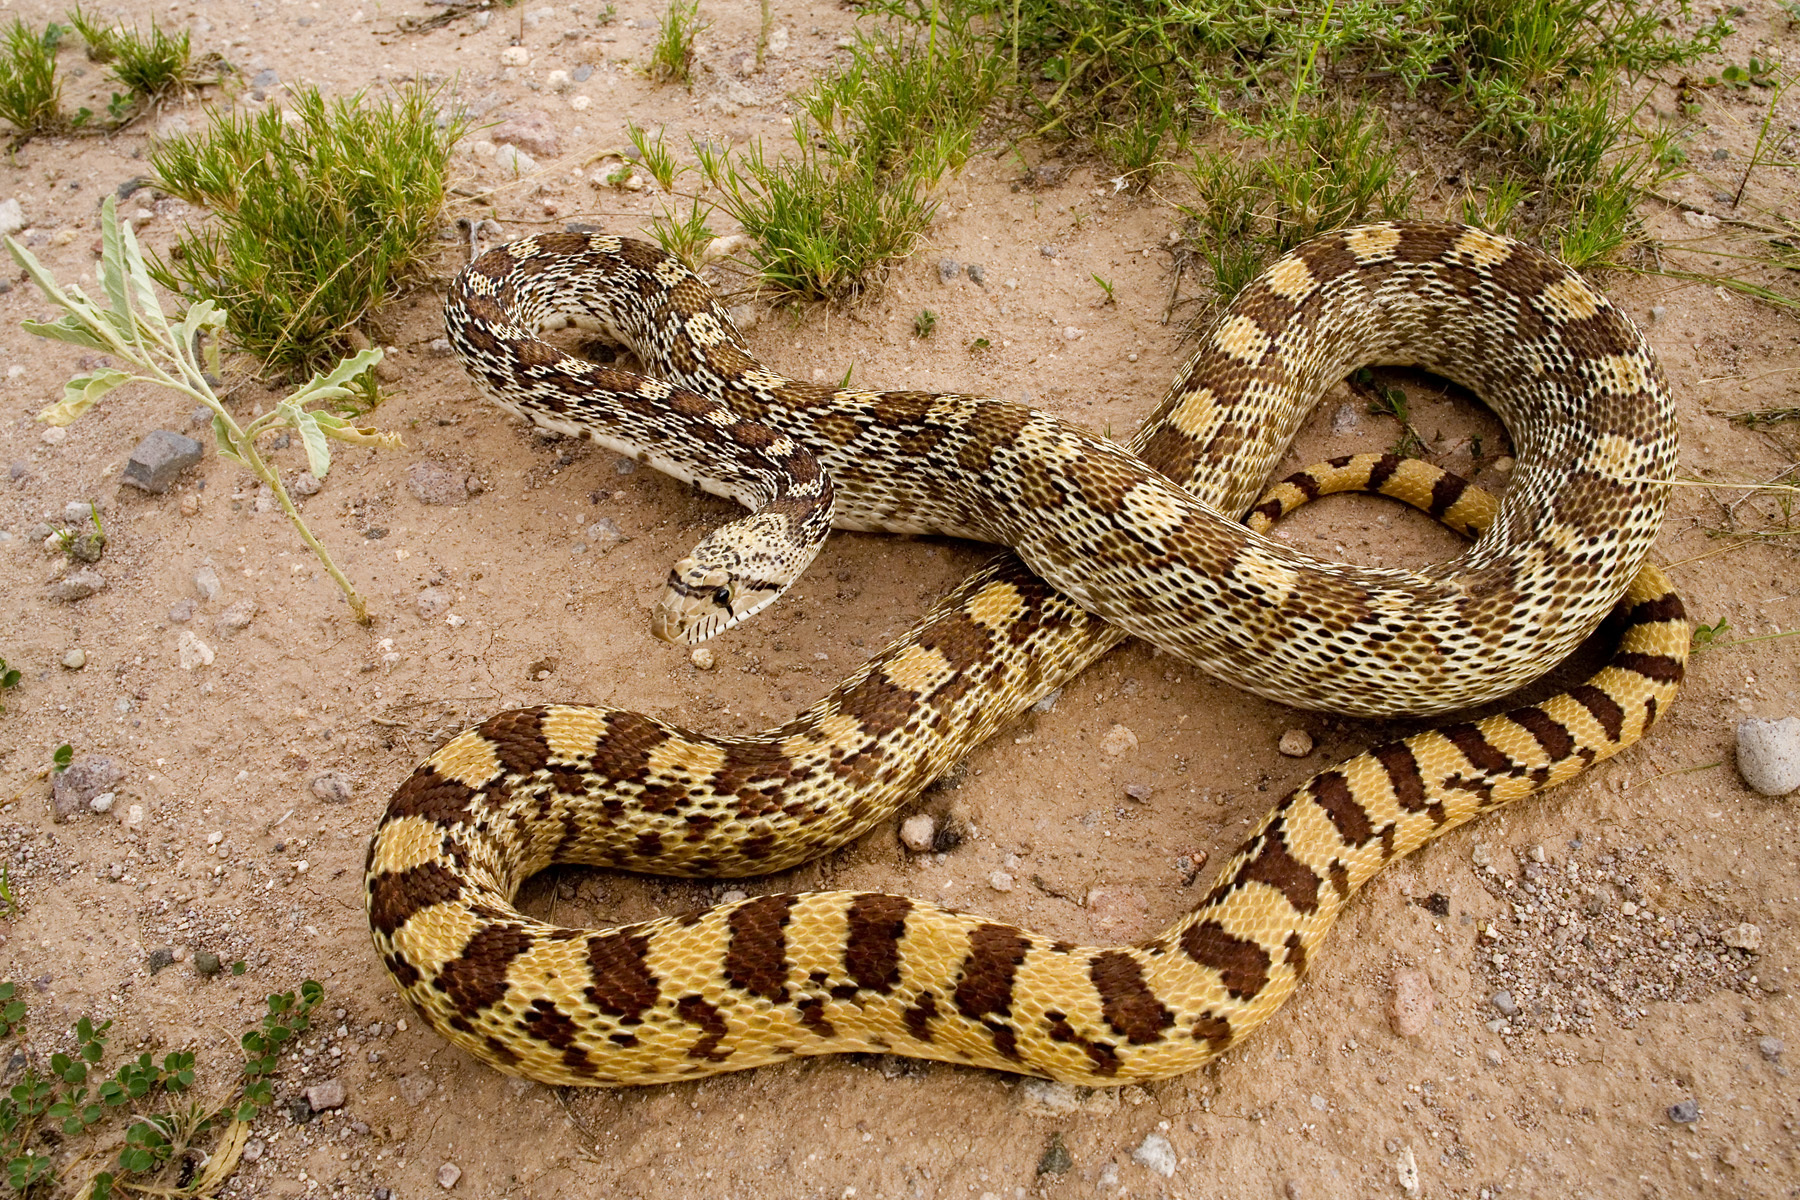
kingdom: Animalia
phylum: Chordata
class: Squamata
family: Colubridae
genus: Pituophis
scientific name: Pituophis catenifer
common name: Gopher snake
